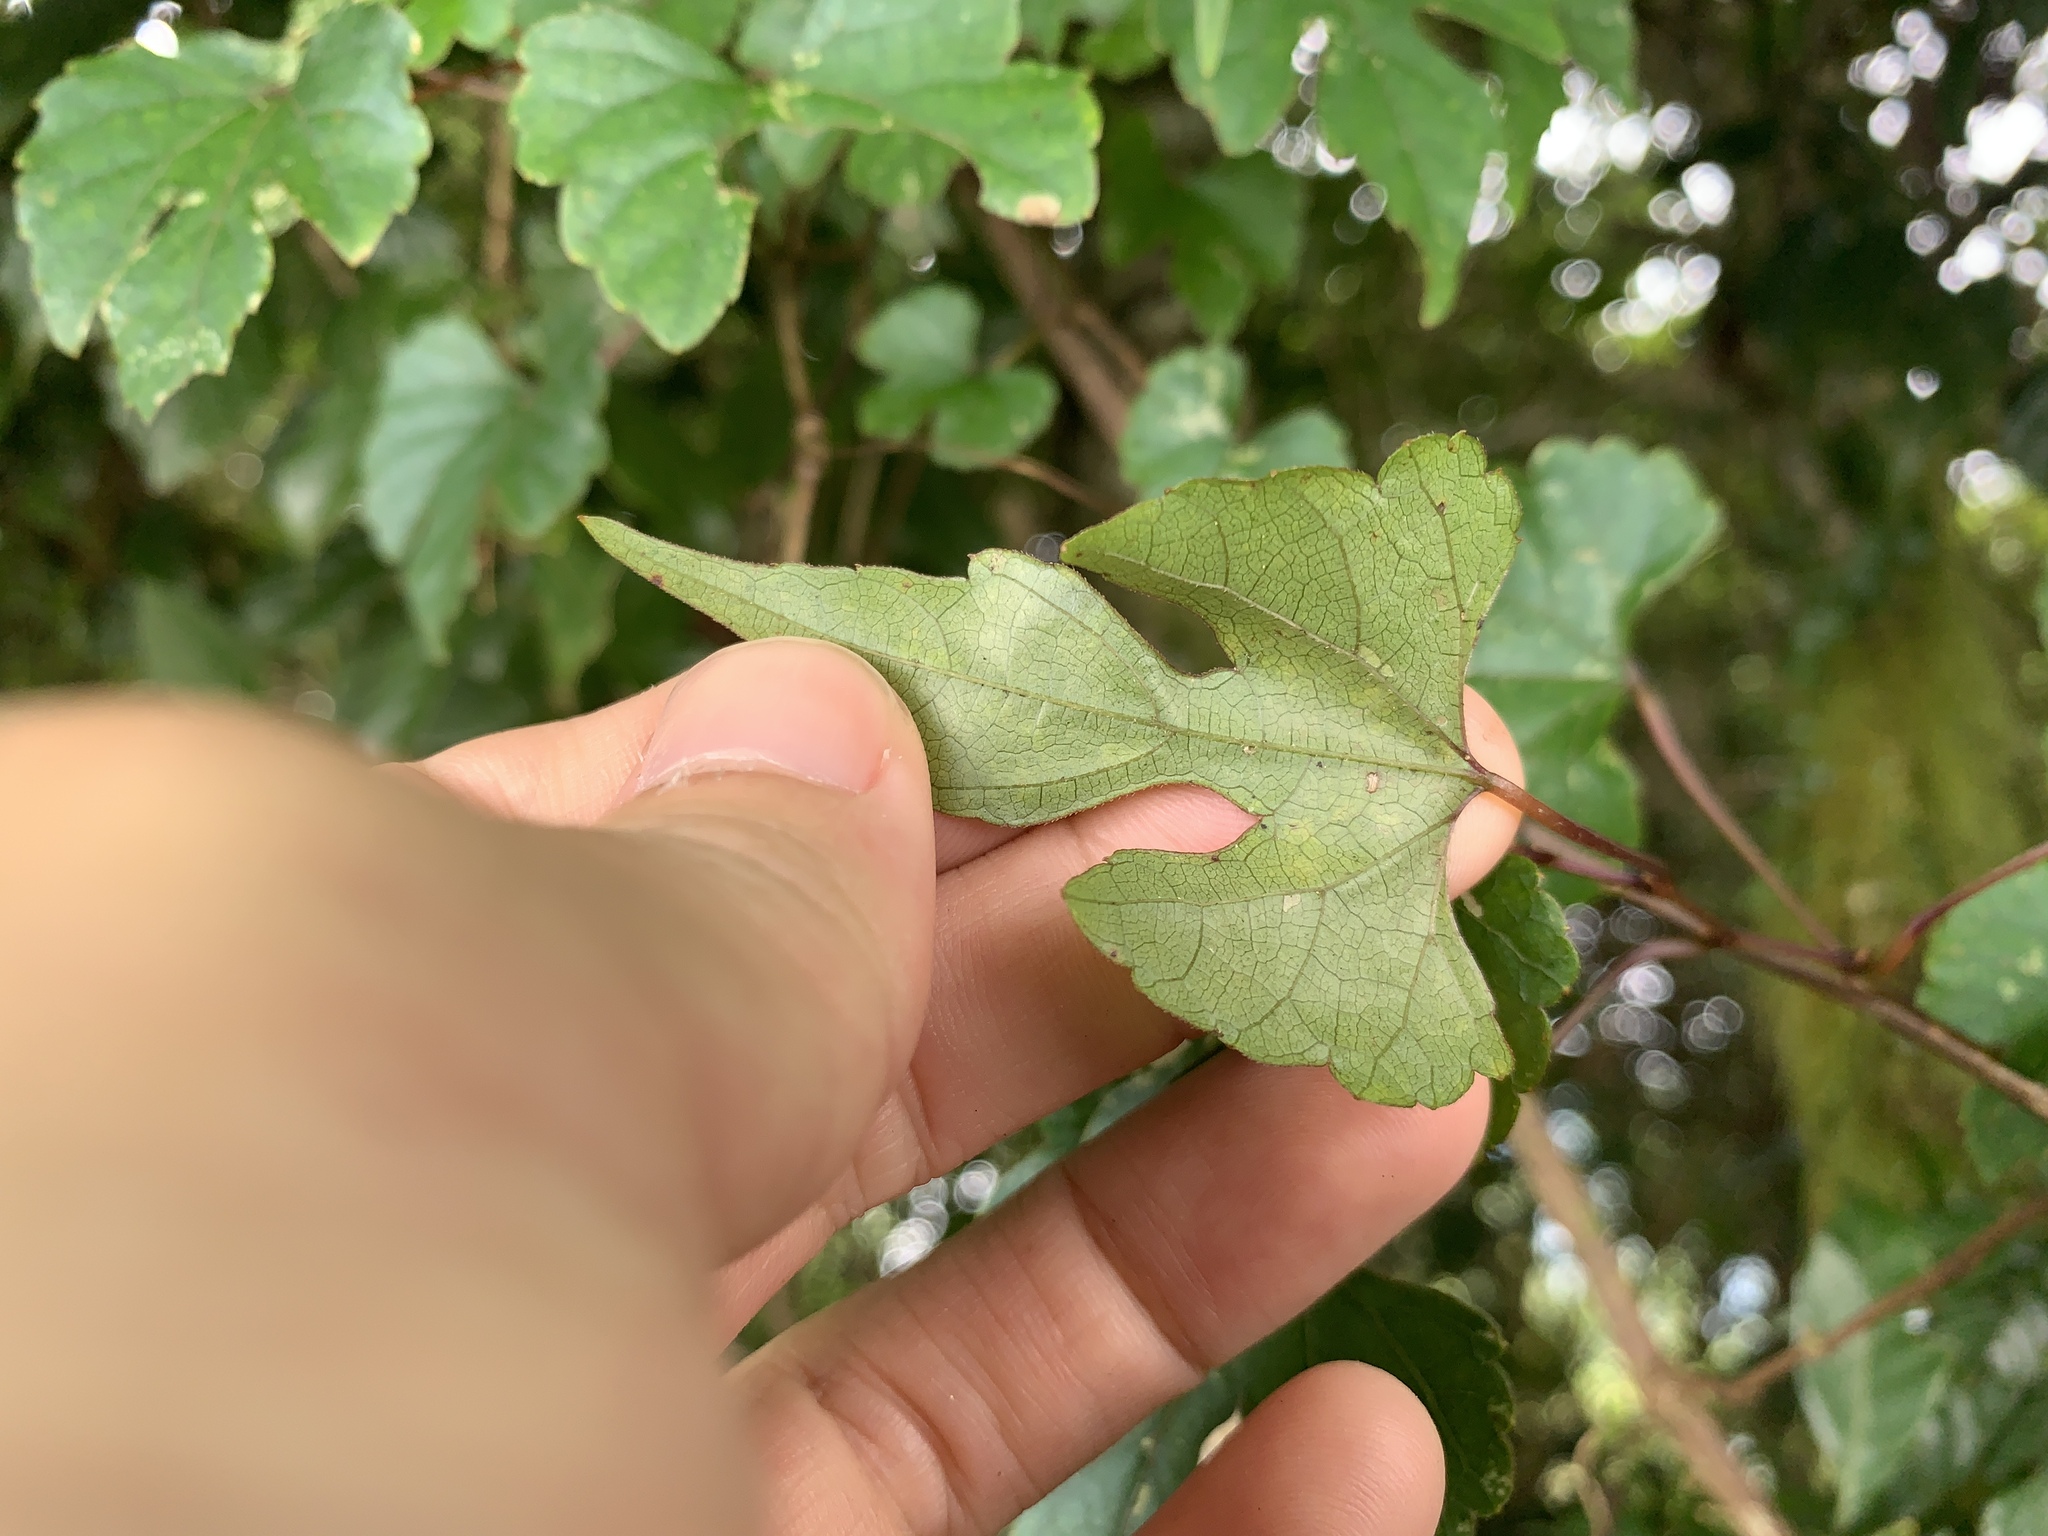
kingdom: Plantae
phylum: Tracheophyta
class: Magnoliopsida
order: Vitales
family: Vitaceae
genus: Ampelopsis
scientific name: Ampelopsis glandulosa
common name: Amur peppervine
